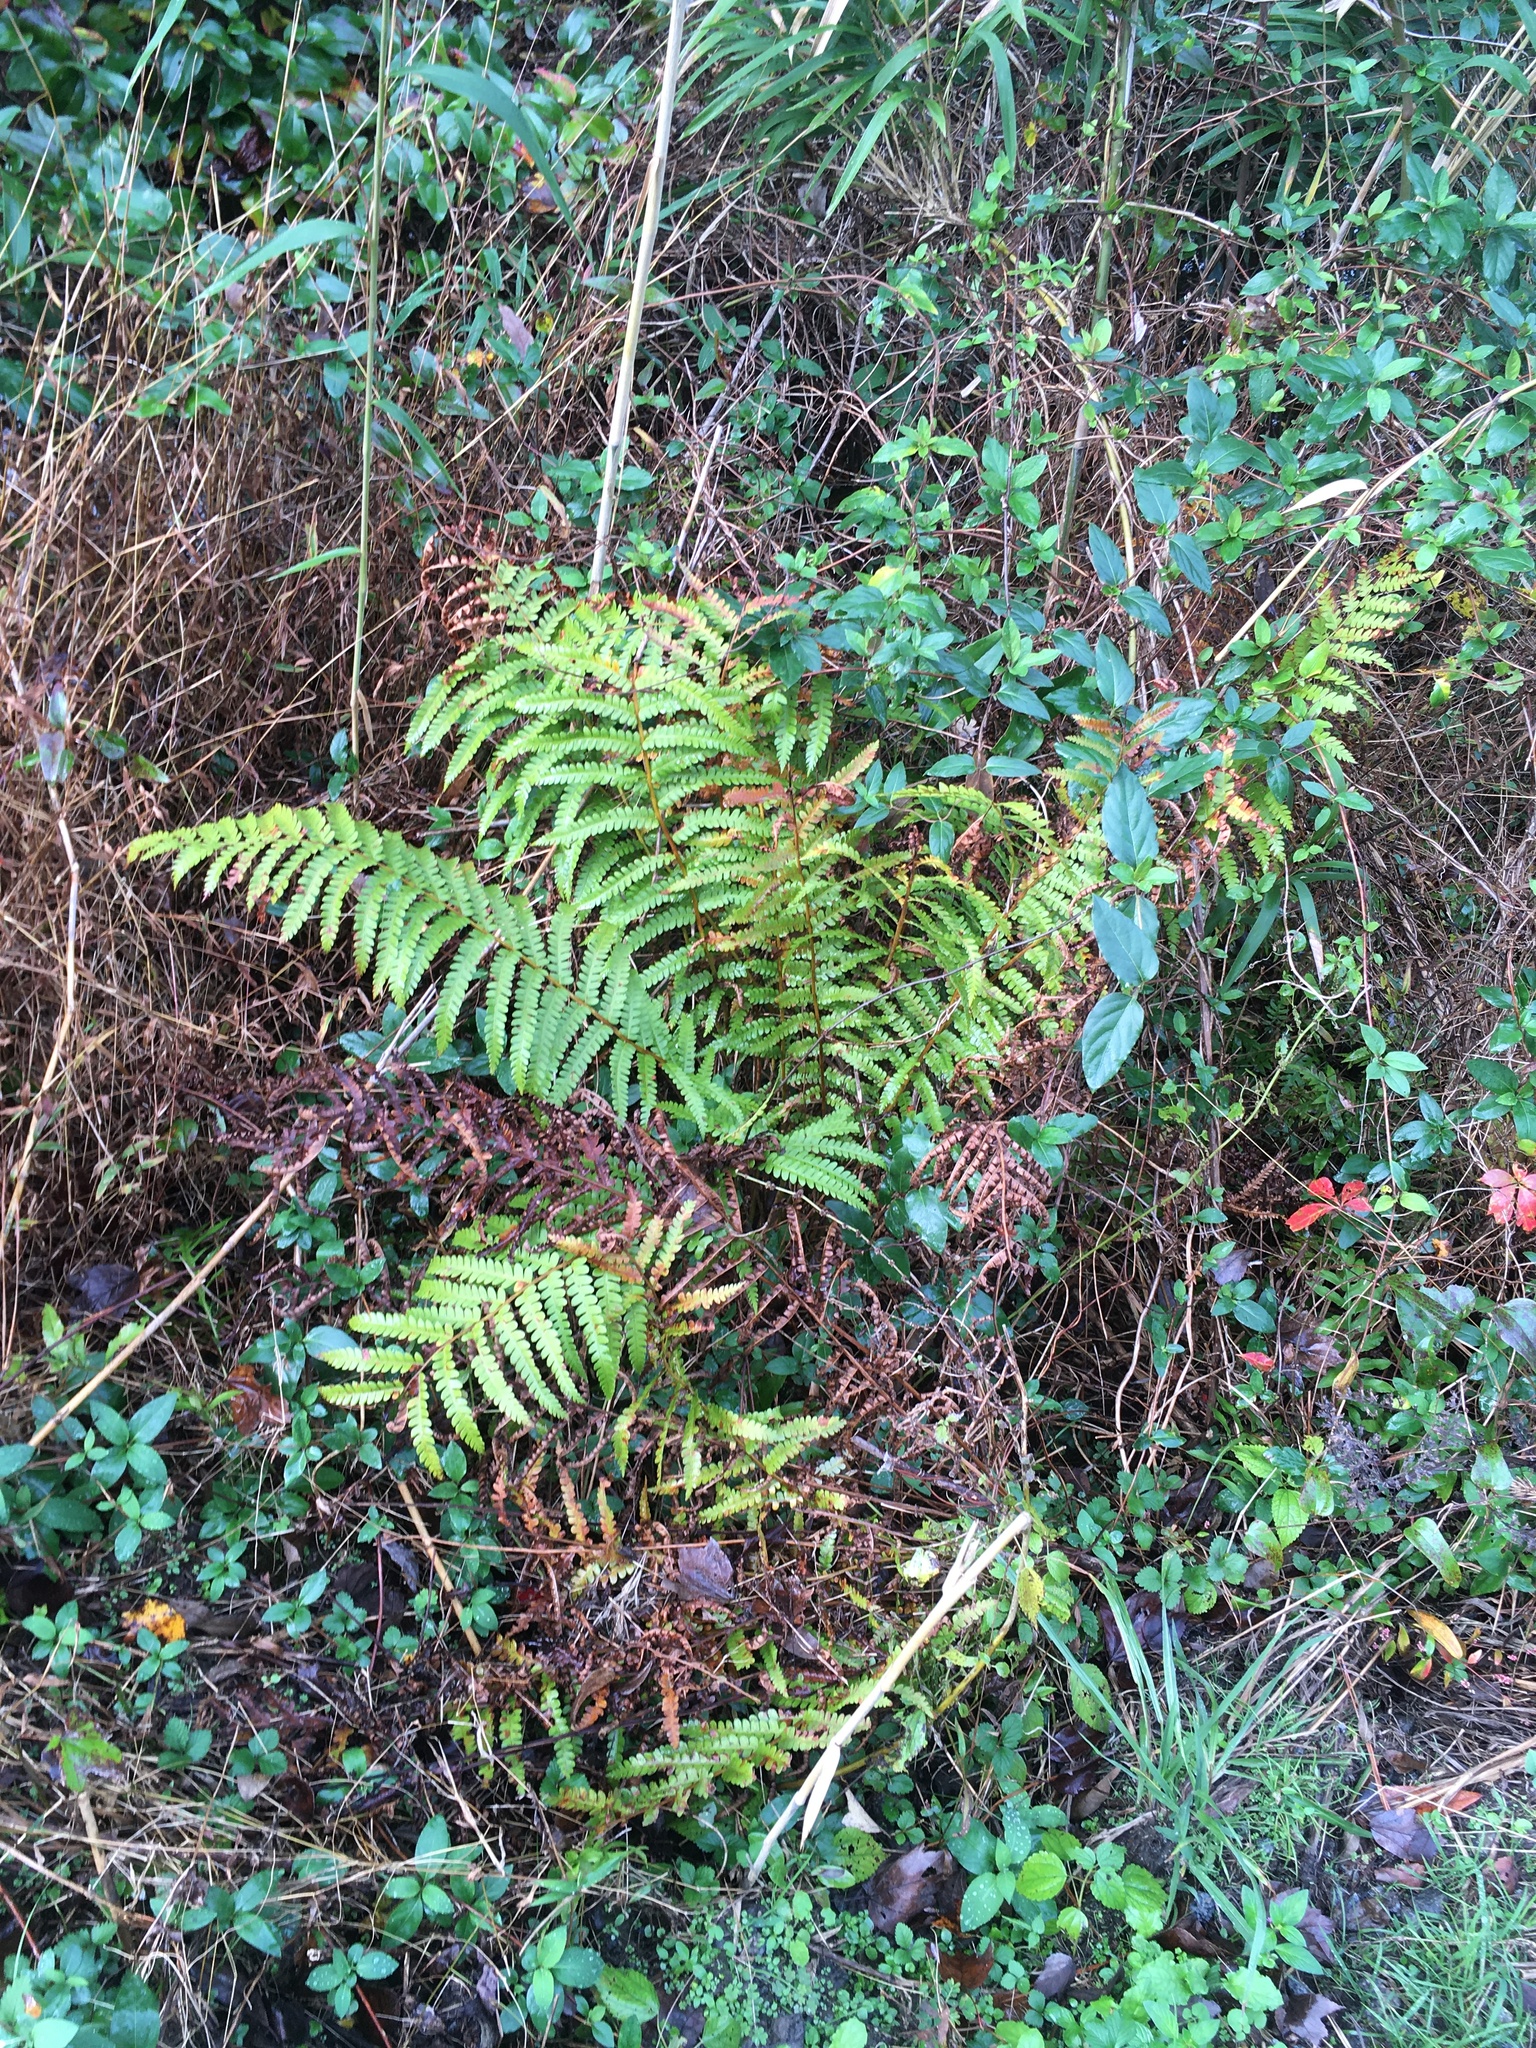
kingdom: Plantae
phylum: Tracheophyta
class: Polypodiopsida
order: Osmundales
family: Osmundaceae
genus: Osmundastrum
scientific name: Osmundastrum cinnamomeum
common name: Cinnamon fern
